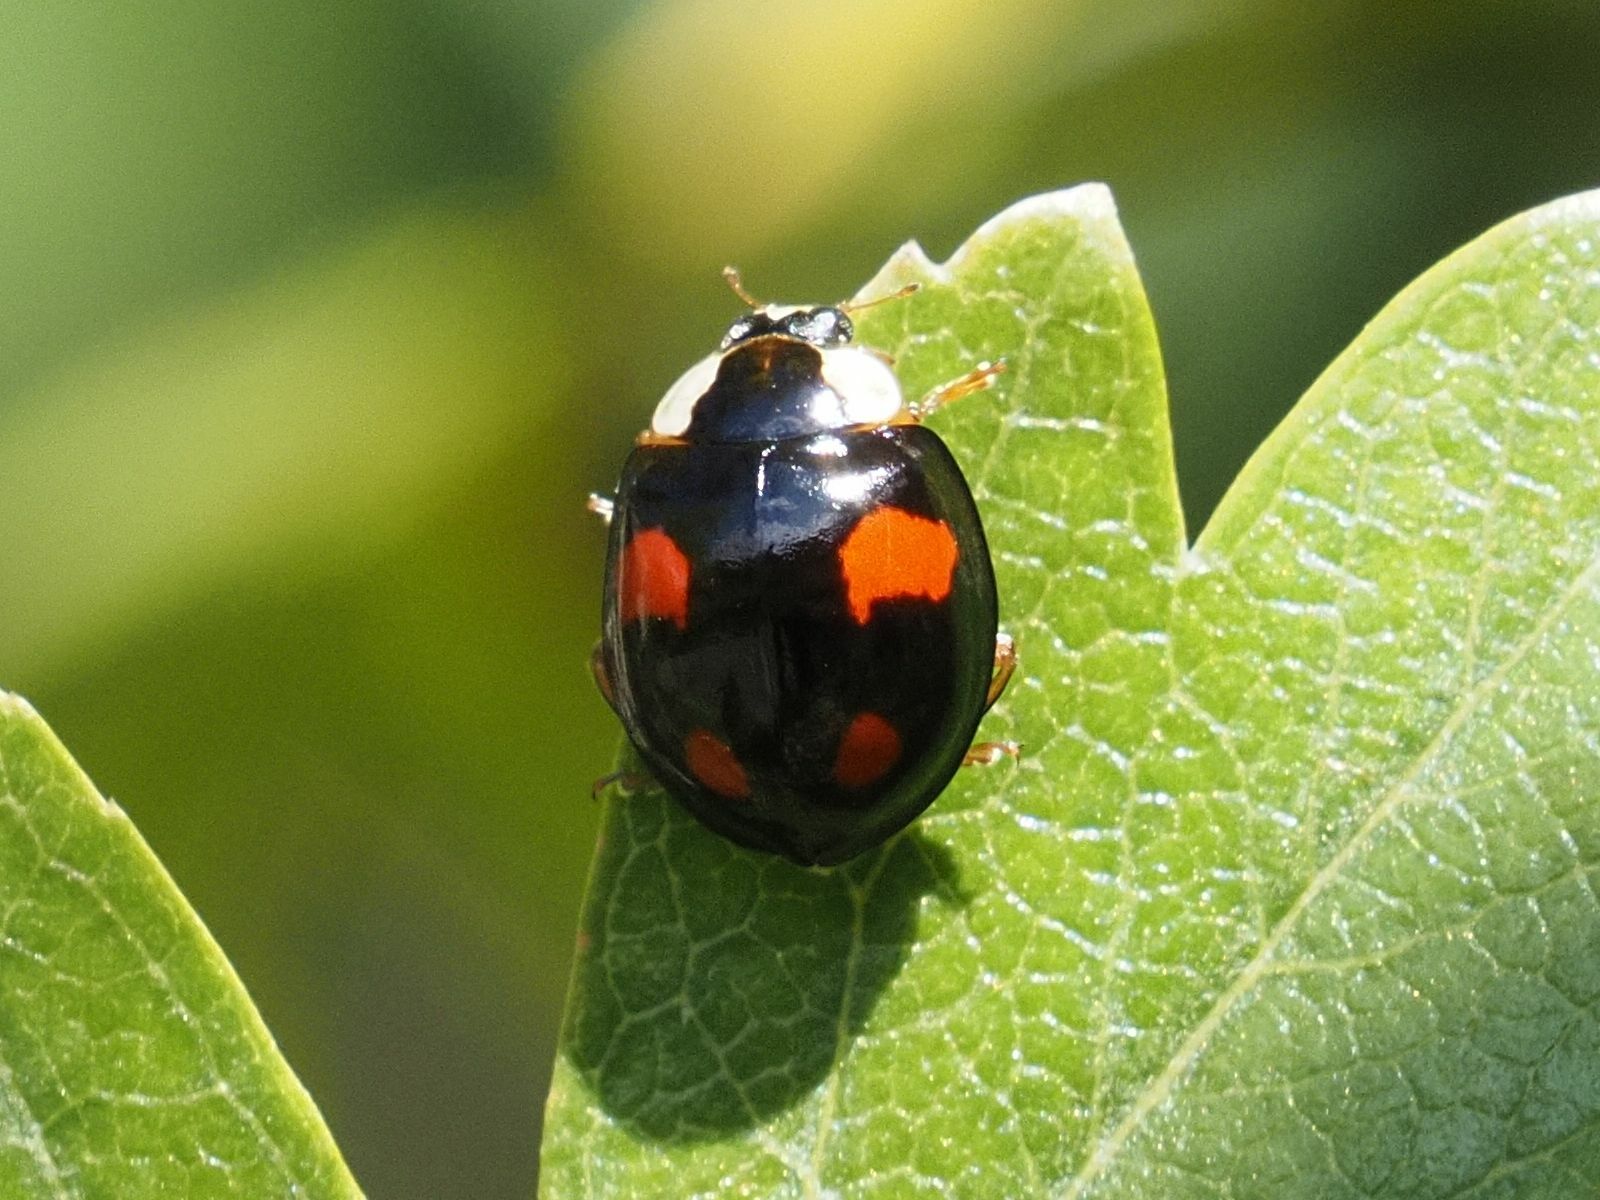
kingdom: Animalia
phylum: Arthropoda
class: Insecta
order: Coleoptera
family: Coccinellidae
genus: Harmonia
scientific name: Harmonia axyridis
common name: Harlequin ladybird
